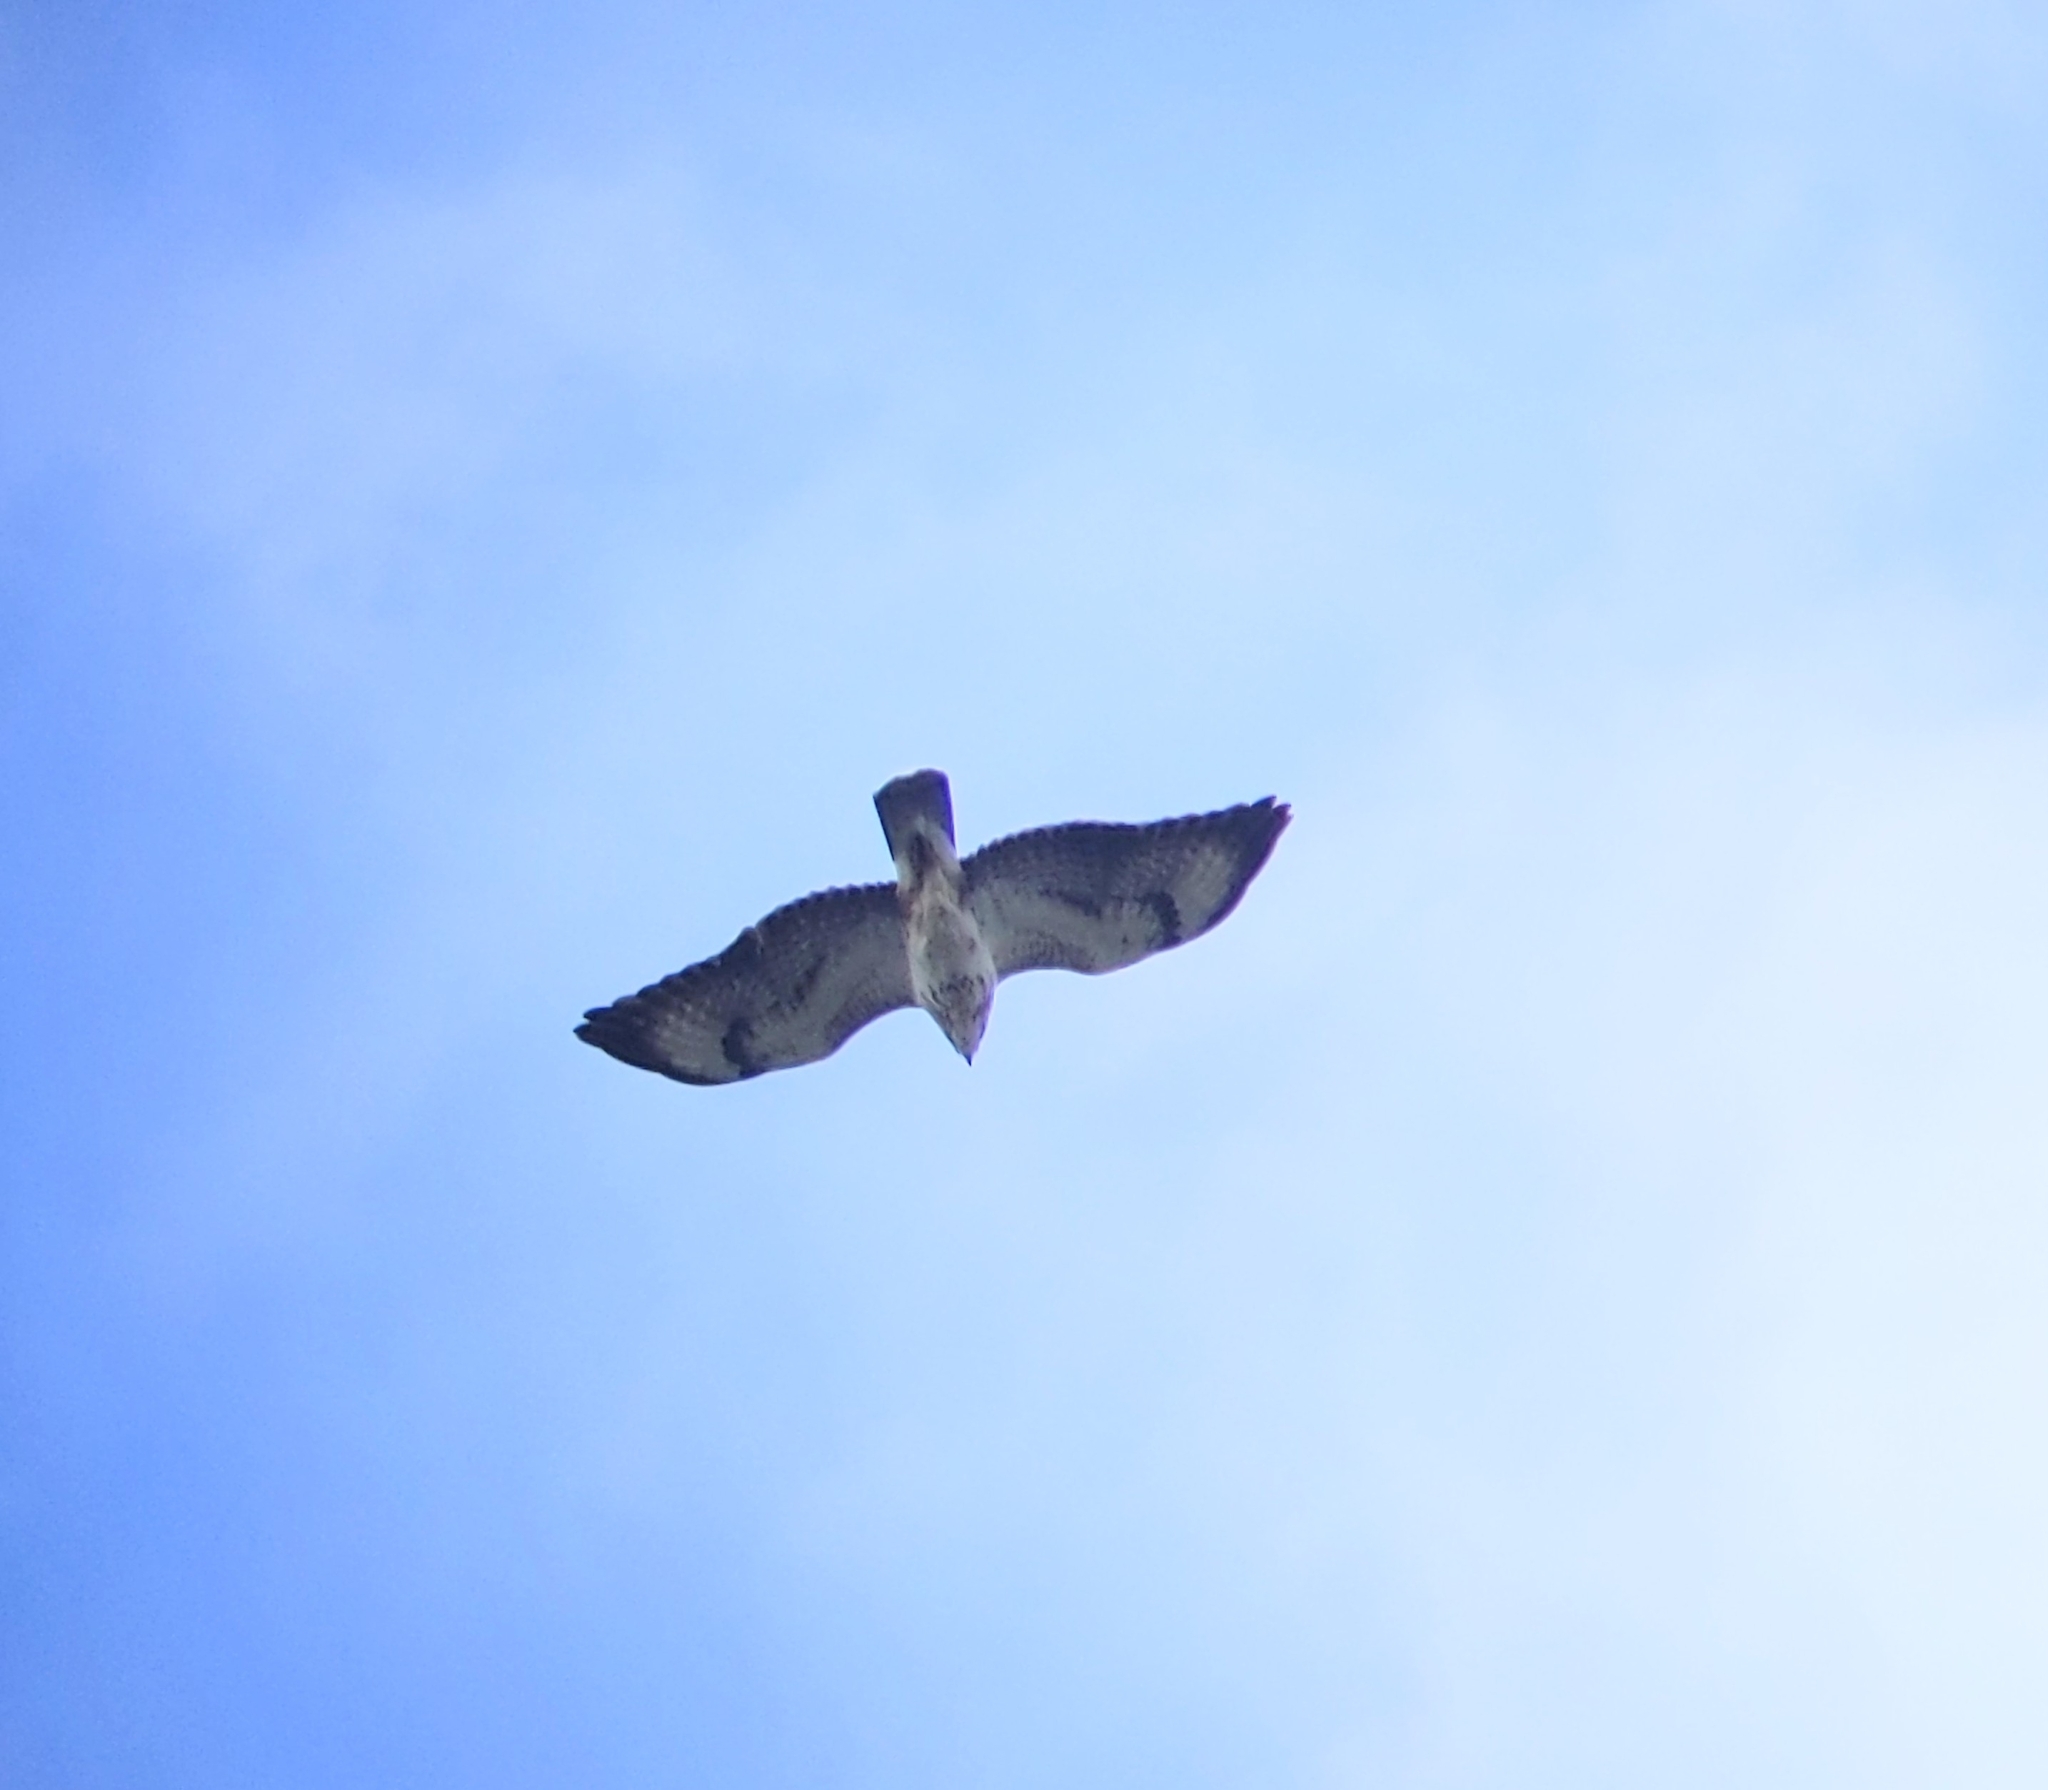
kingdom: Animalia
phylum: Chordata
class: Aves
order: Accipitriformes
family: Accipitridae
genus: Buteo
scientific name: Buteo buteo
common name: Common buzzard
